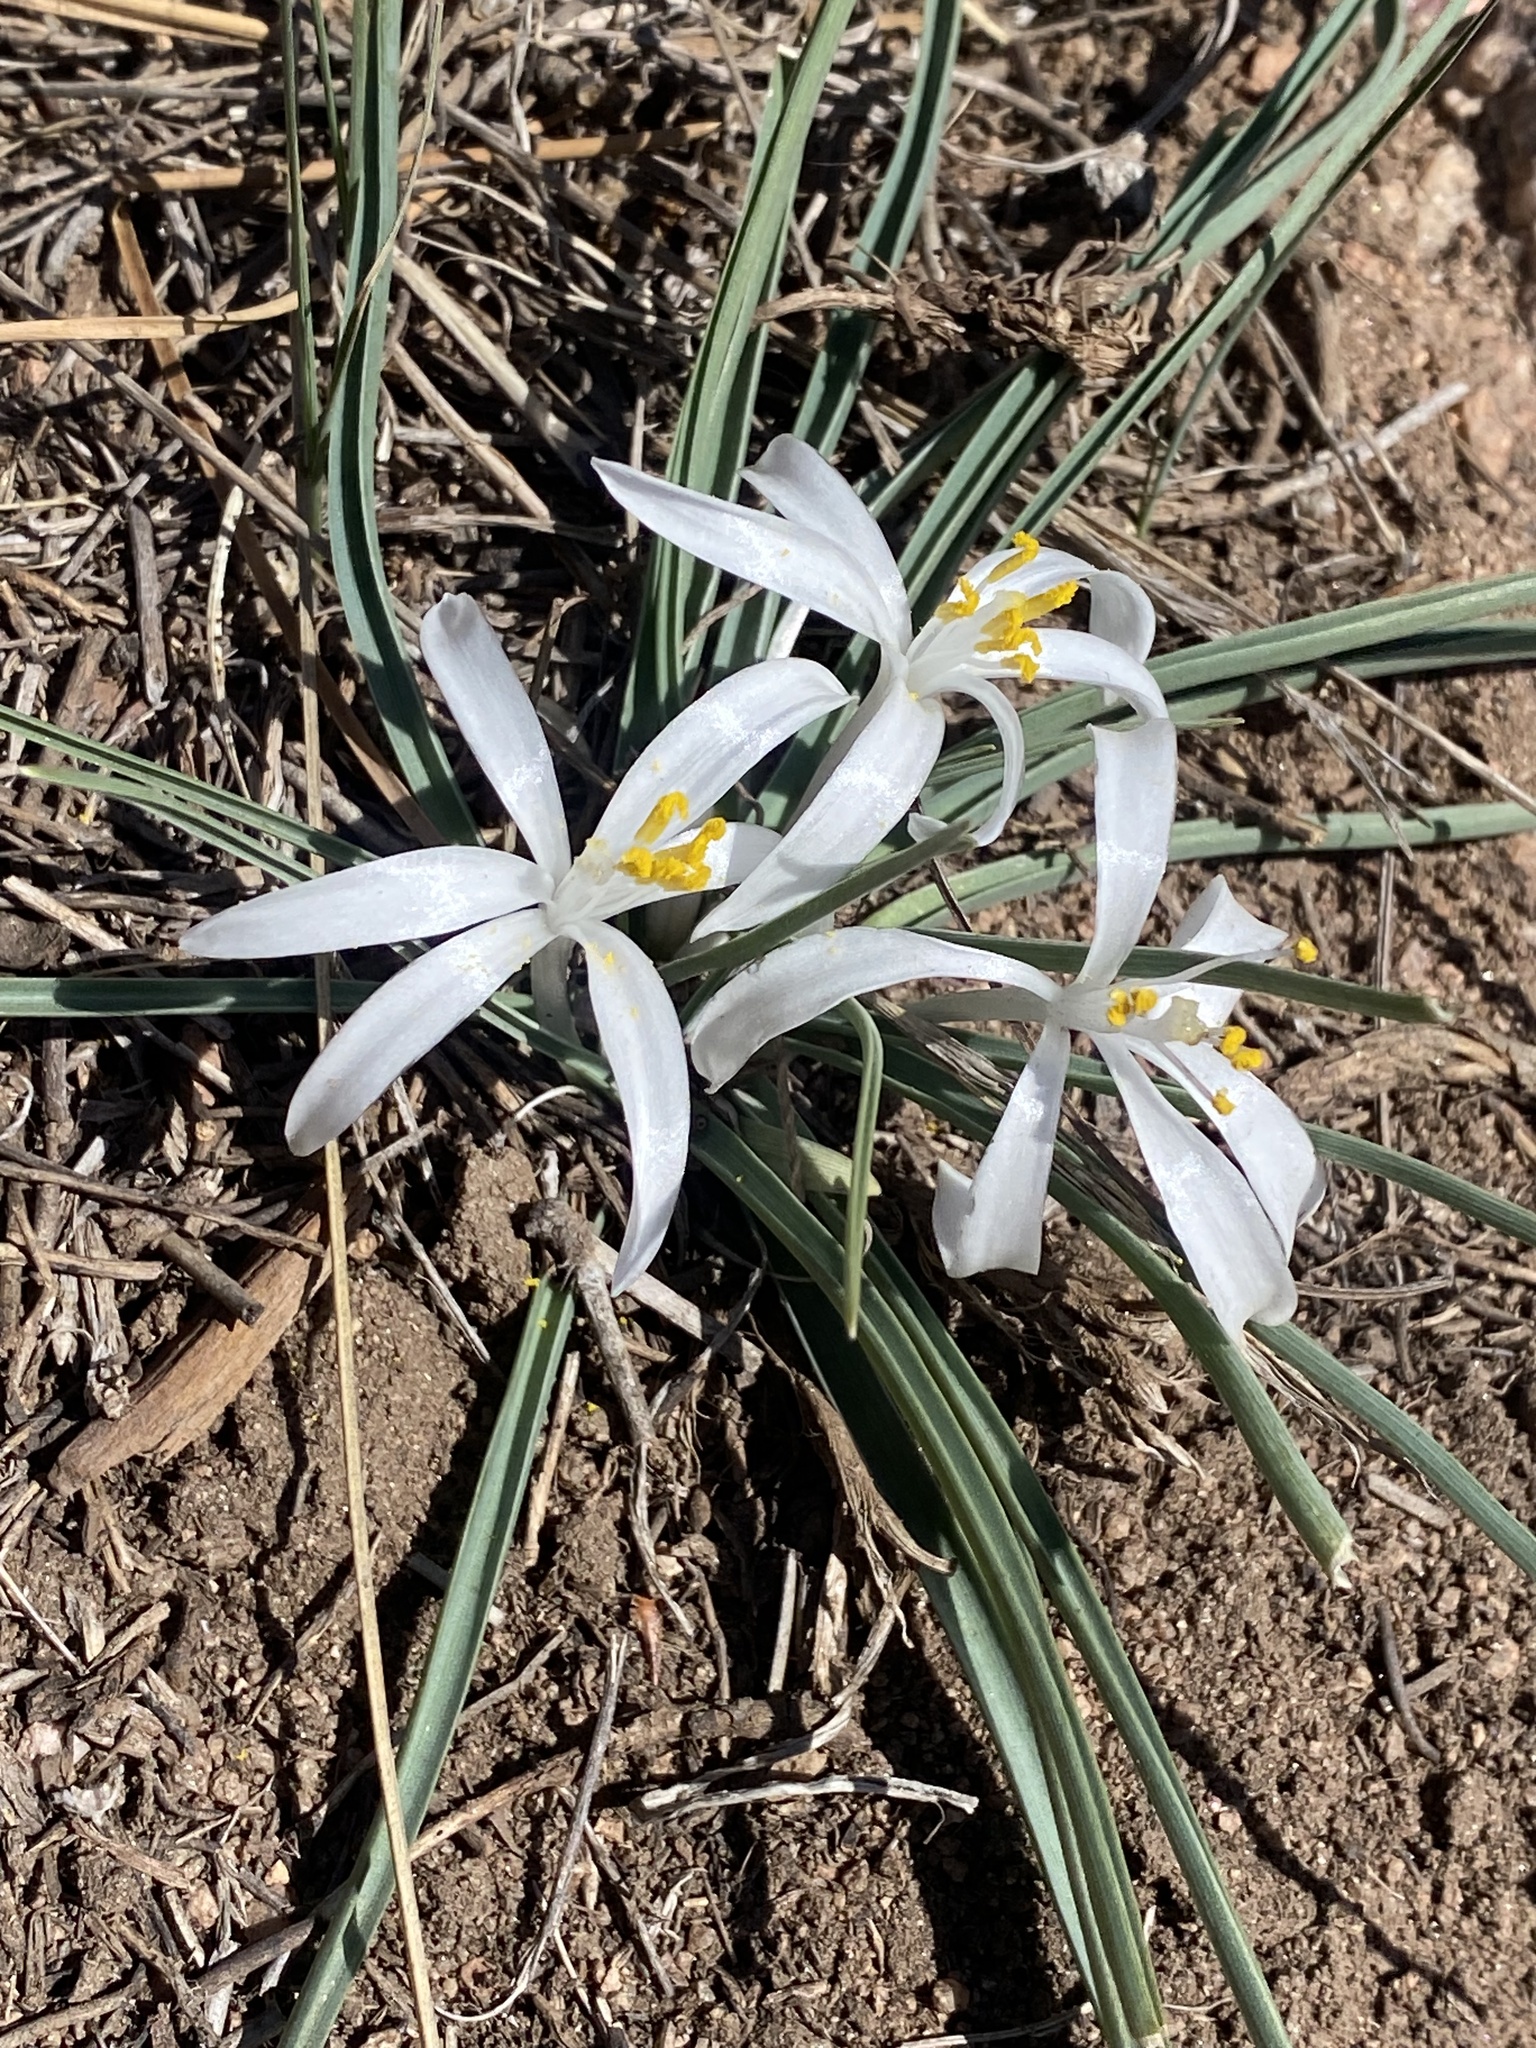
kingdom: Plantae
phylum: Tracheophyta
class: Liliopsida
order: Asparagales
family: Asparagaceae
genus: Leucocrinum
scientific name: Leucocrinum montanum
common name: Mountain-lily
